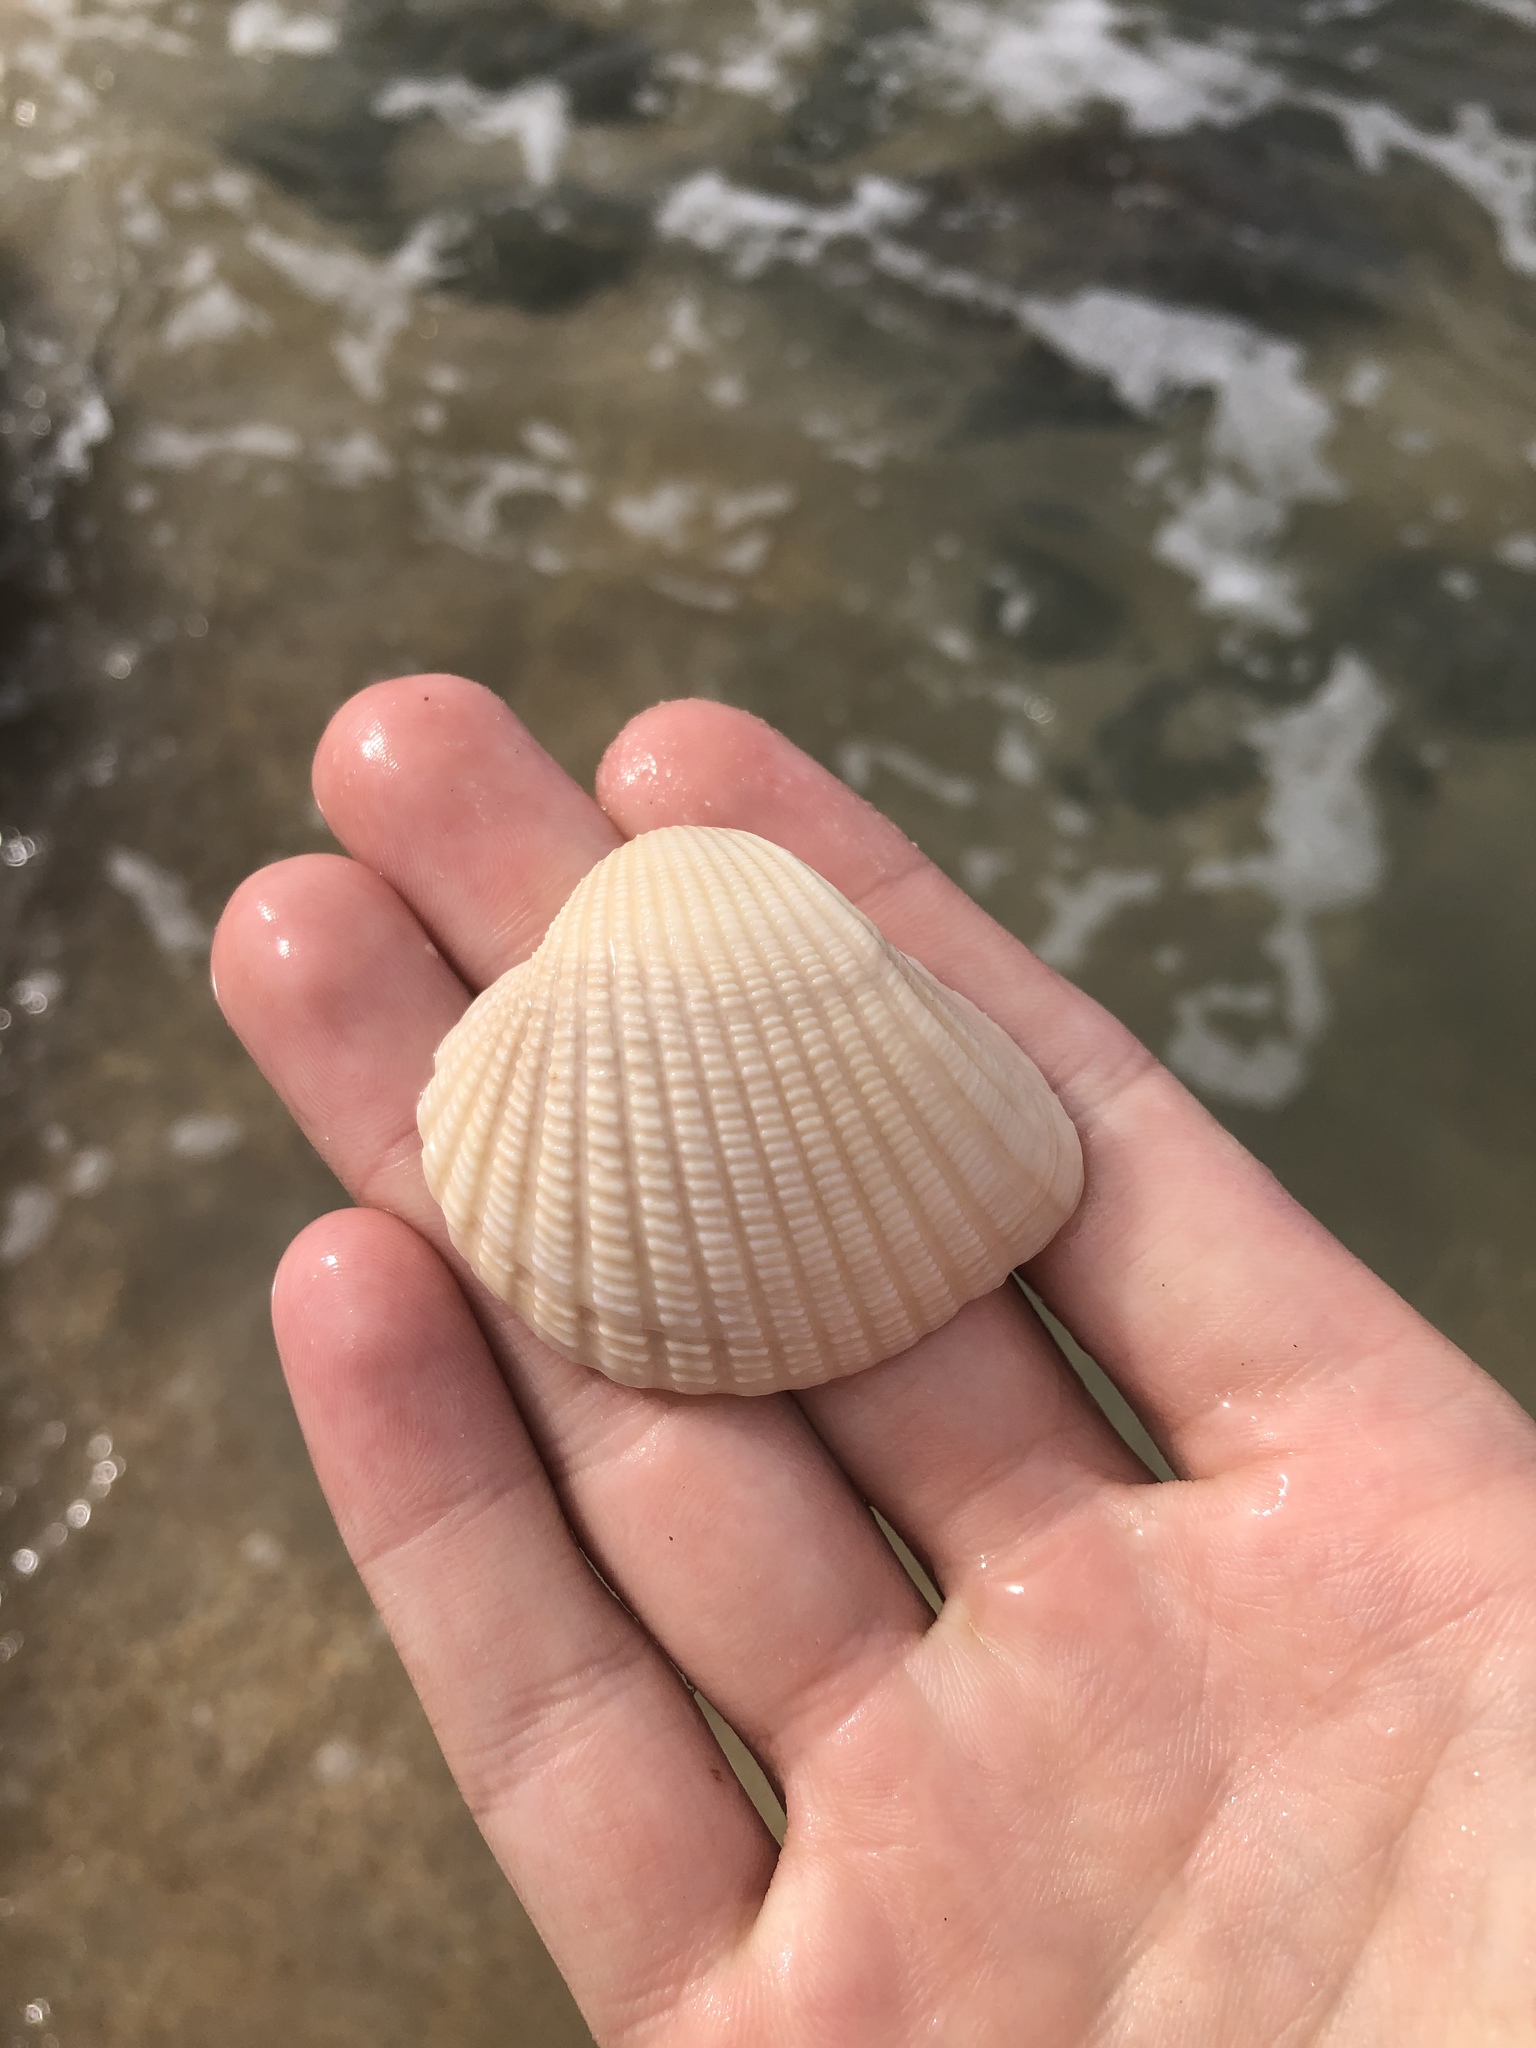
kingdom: Animalia
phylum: Mollusca
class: Bivalvia
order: Arcida
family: Arcidae
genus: Anadara
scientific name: Anadara brasiliana
